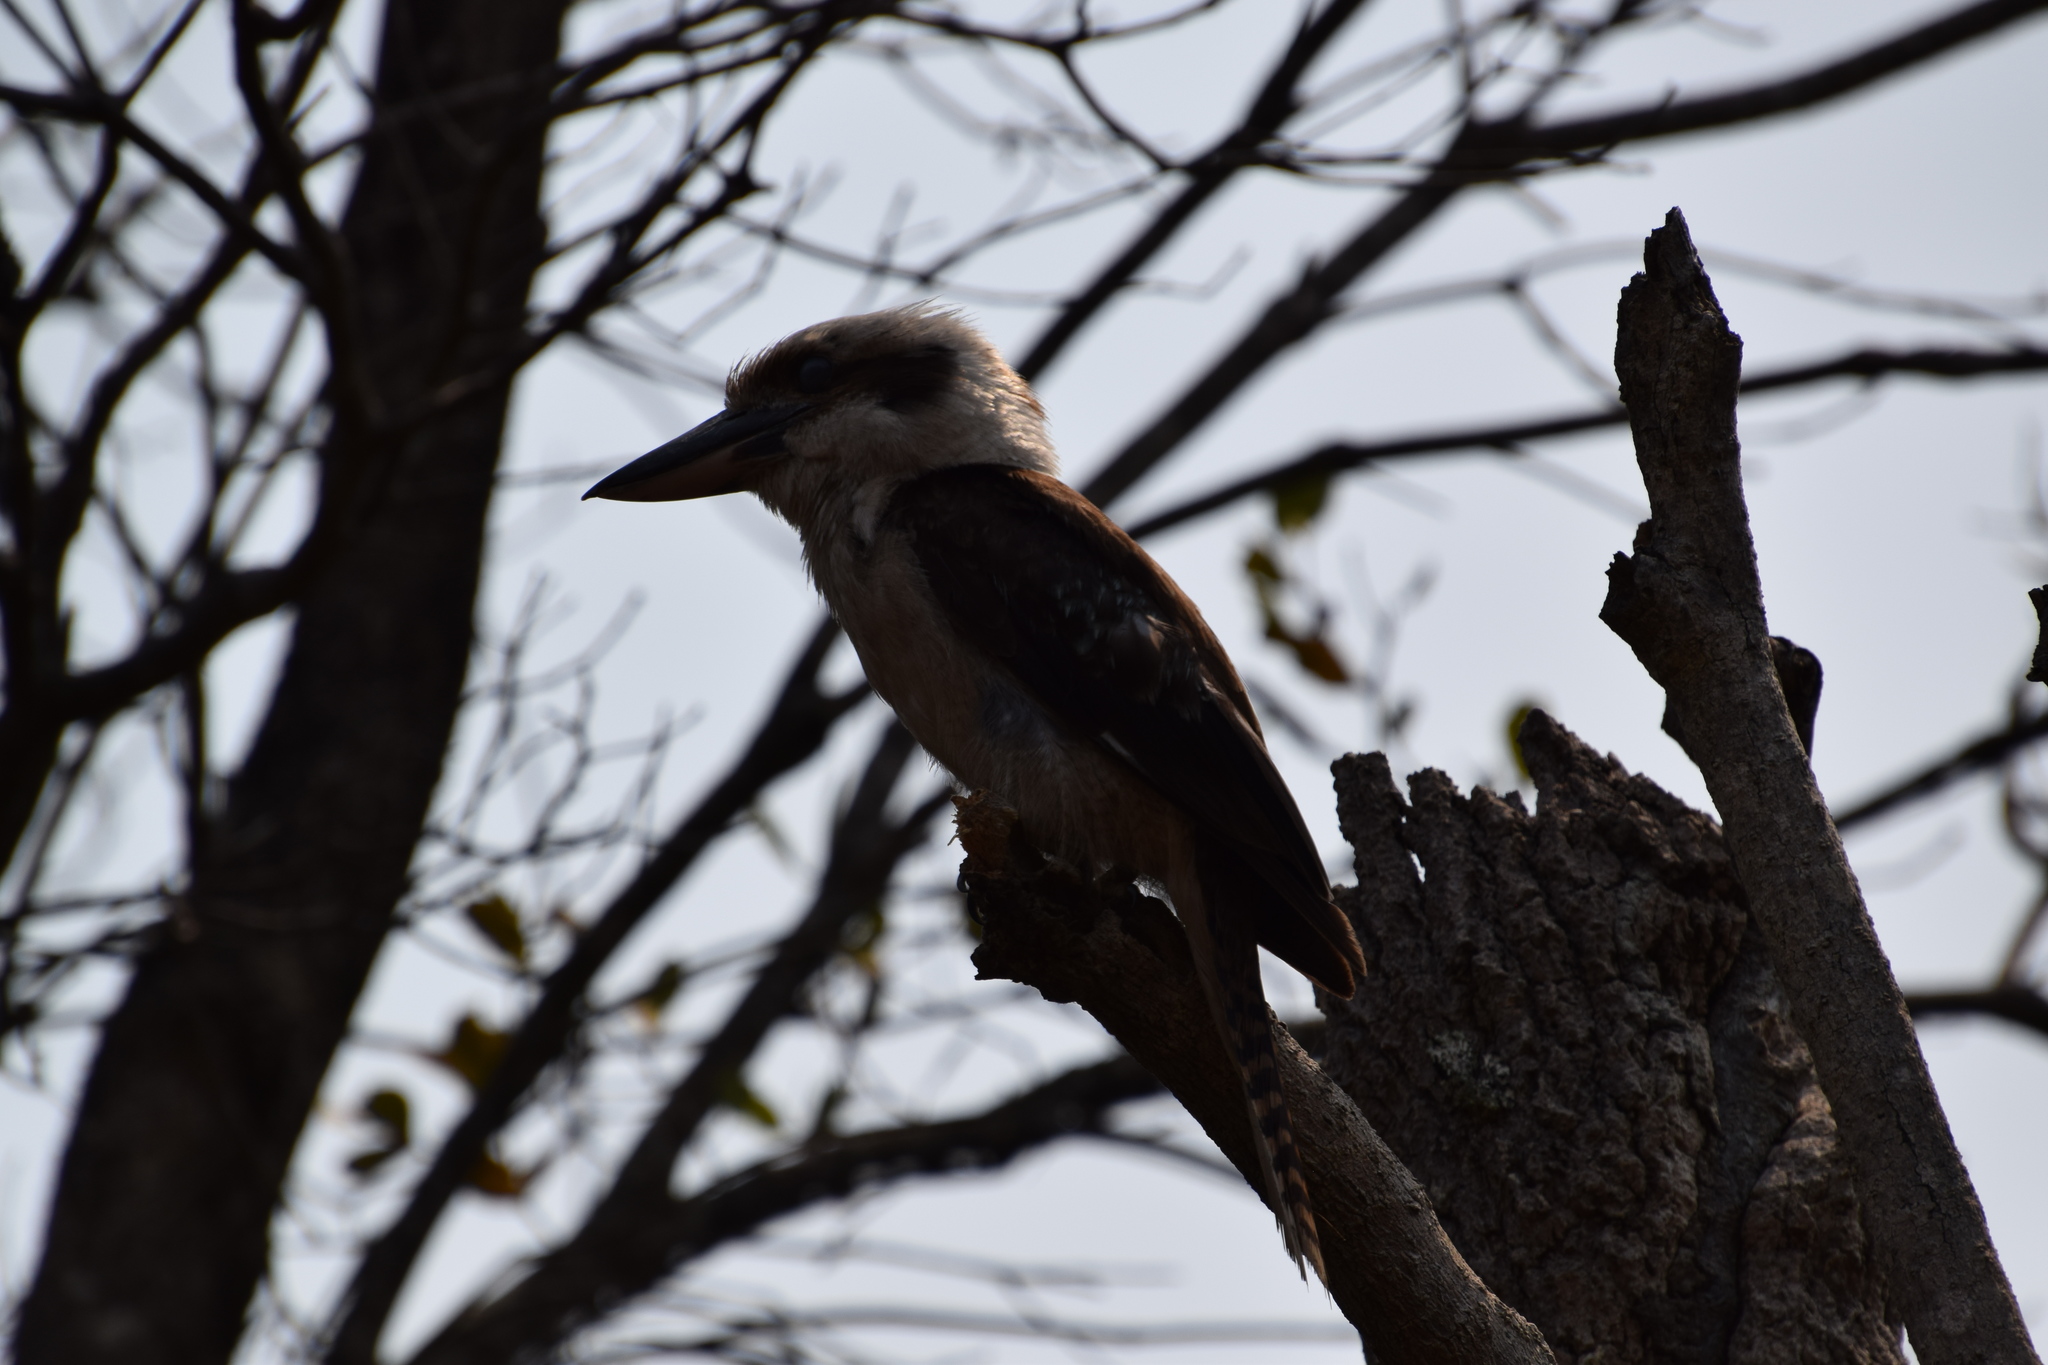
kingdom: Animalia
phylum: Chordata
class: Aves
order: Coraciiformes
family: Alcedinidae
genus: Dacelo
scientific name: Dacelo novaeguineae
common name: Laughing kookaburra
